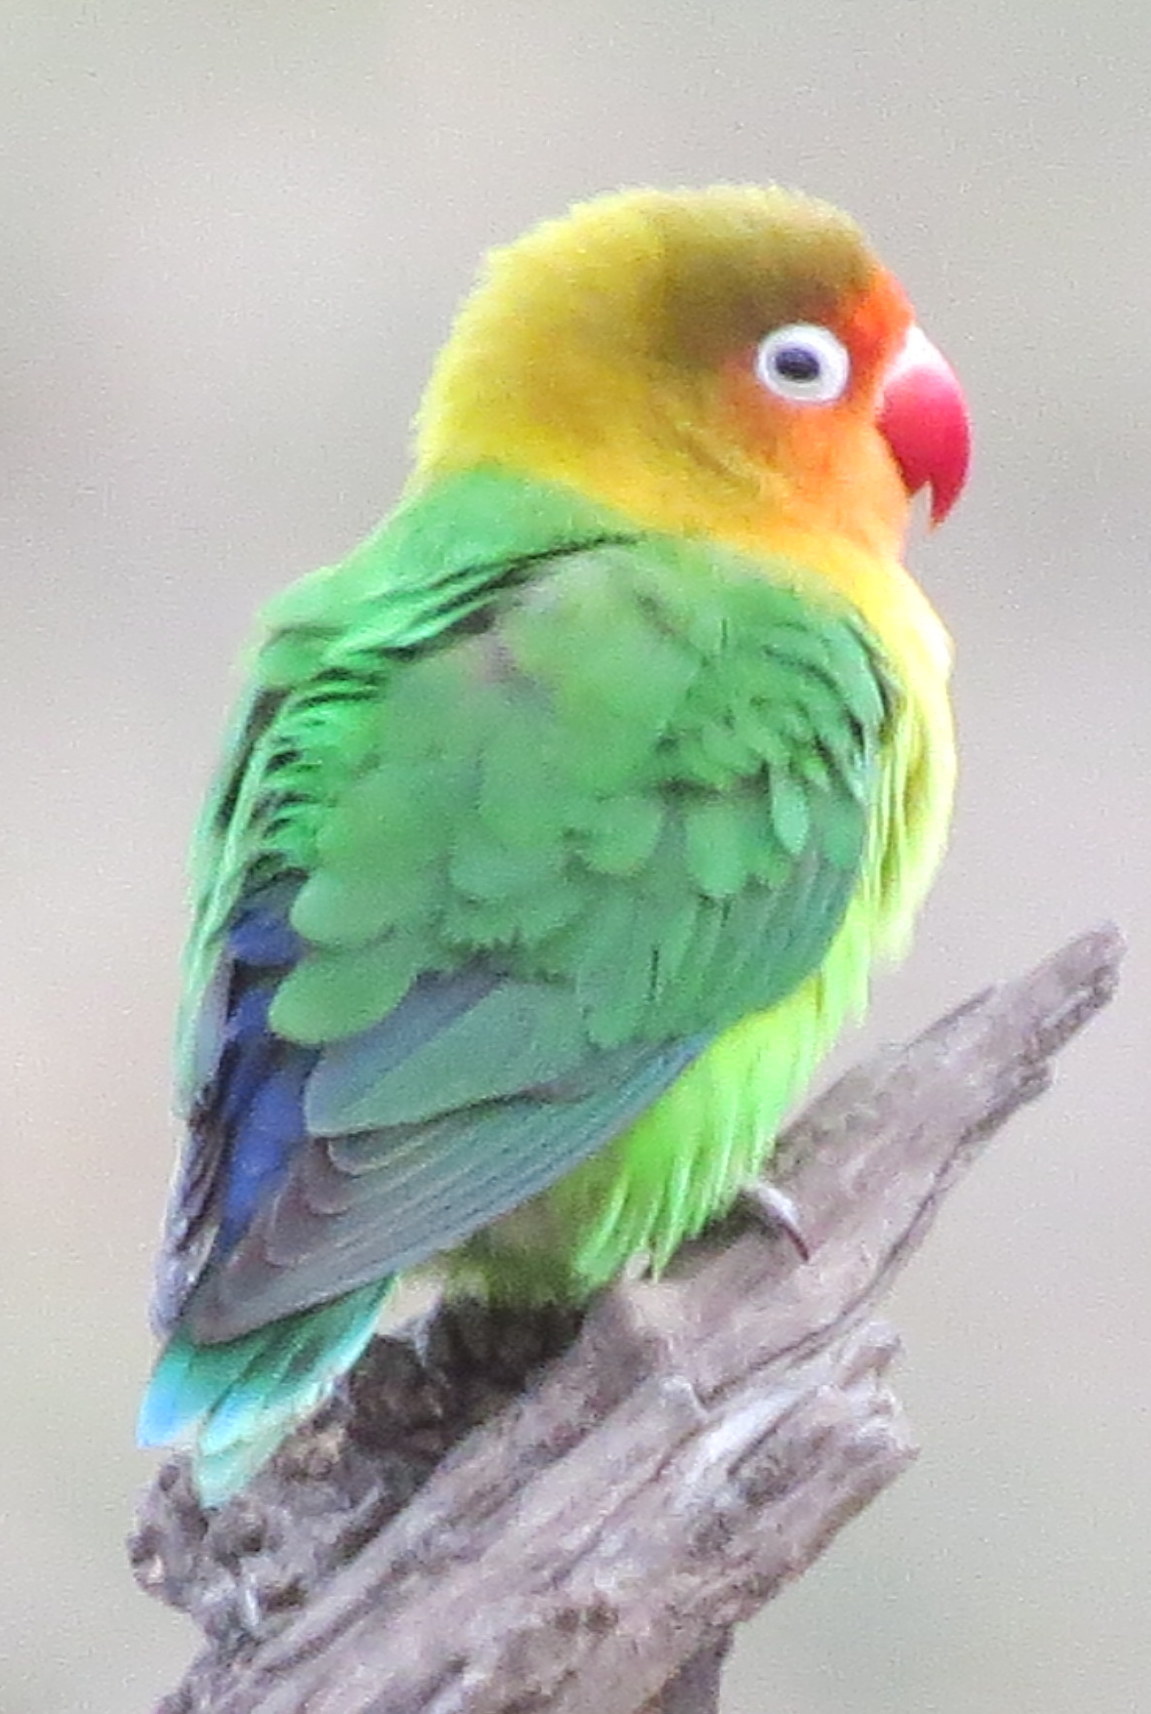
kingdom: Animalia
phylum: Chordata
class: Aves
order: Psittaciformes
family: Psittacidae
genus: Agapornis
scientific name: Agapornis fischeri
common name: Fischer's lovebird
